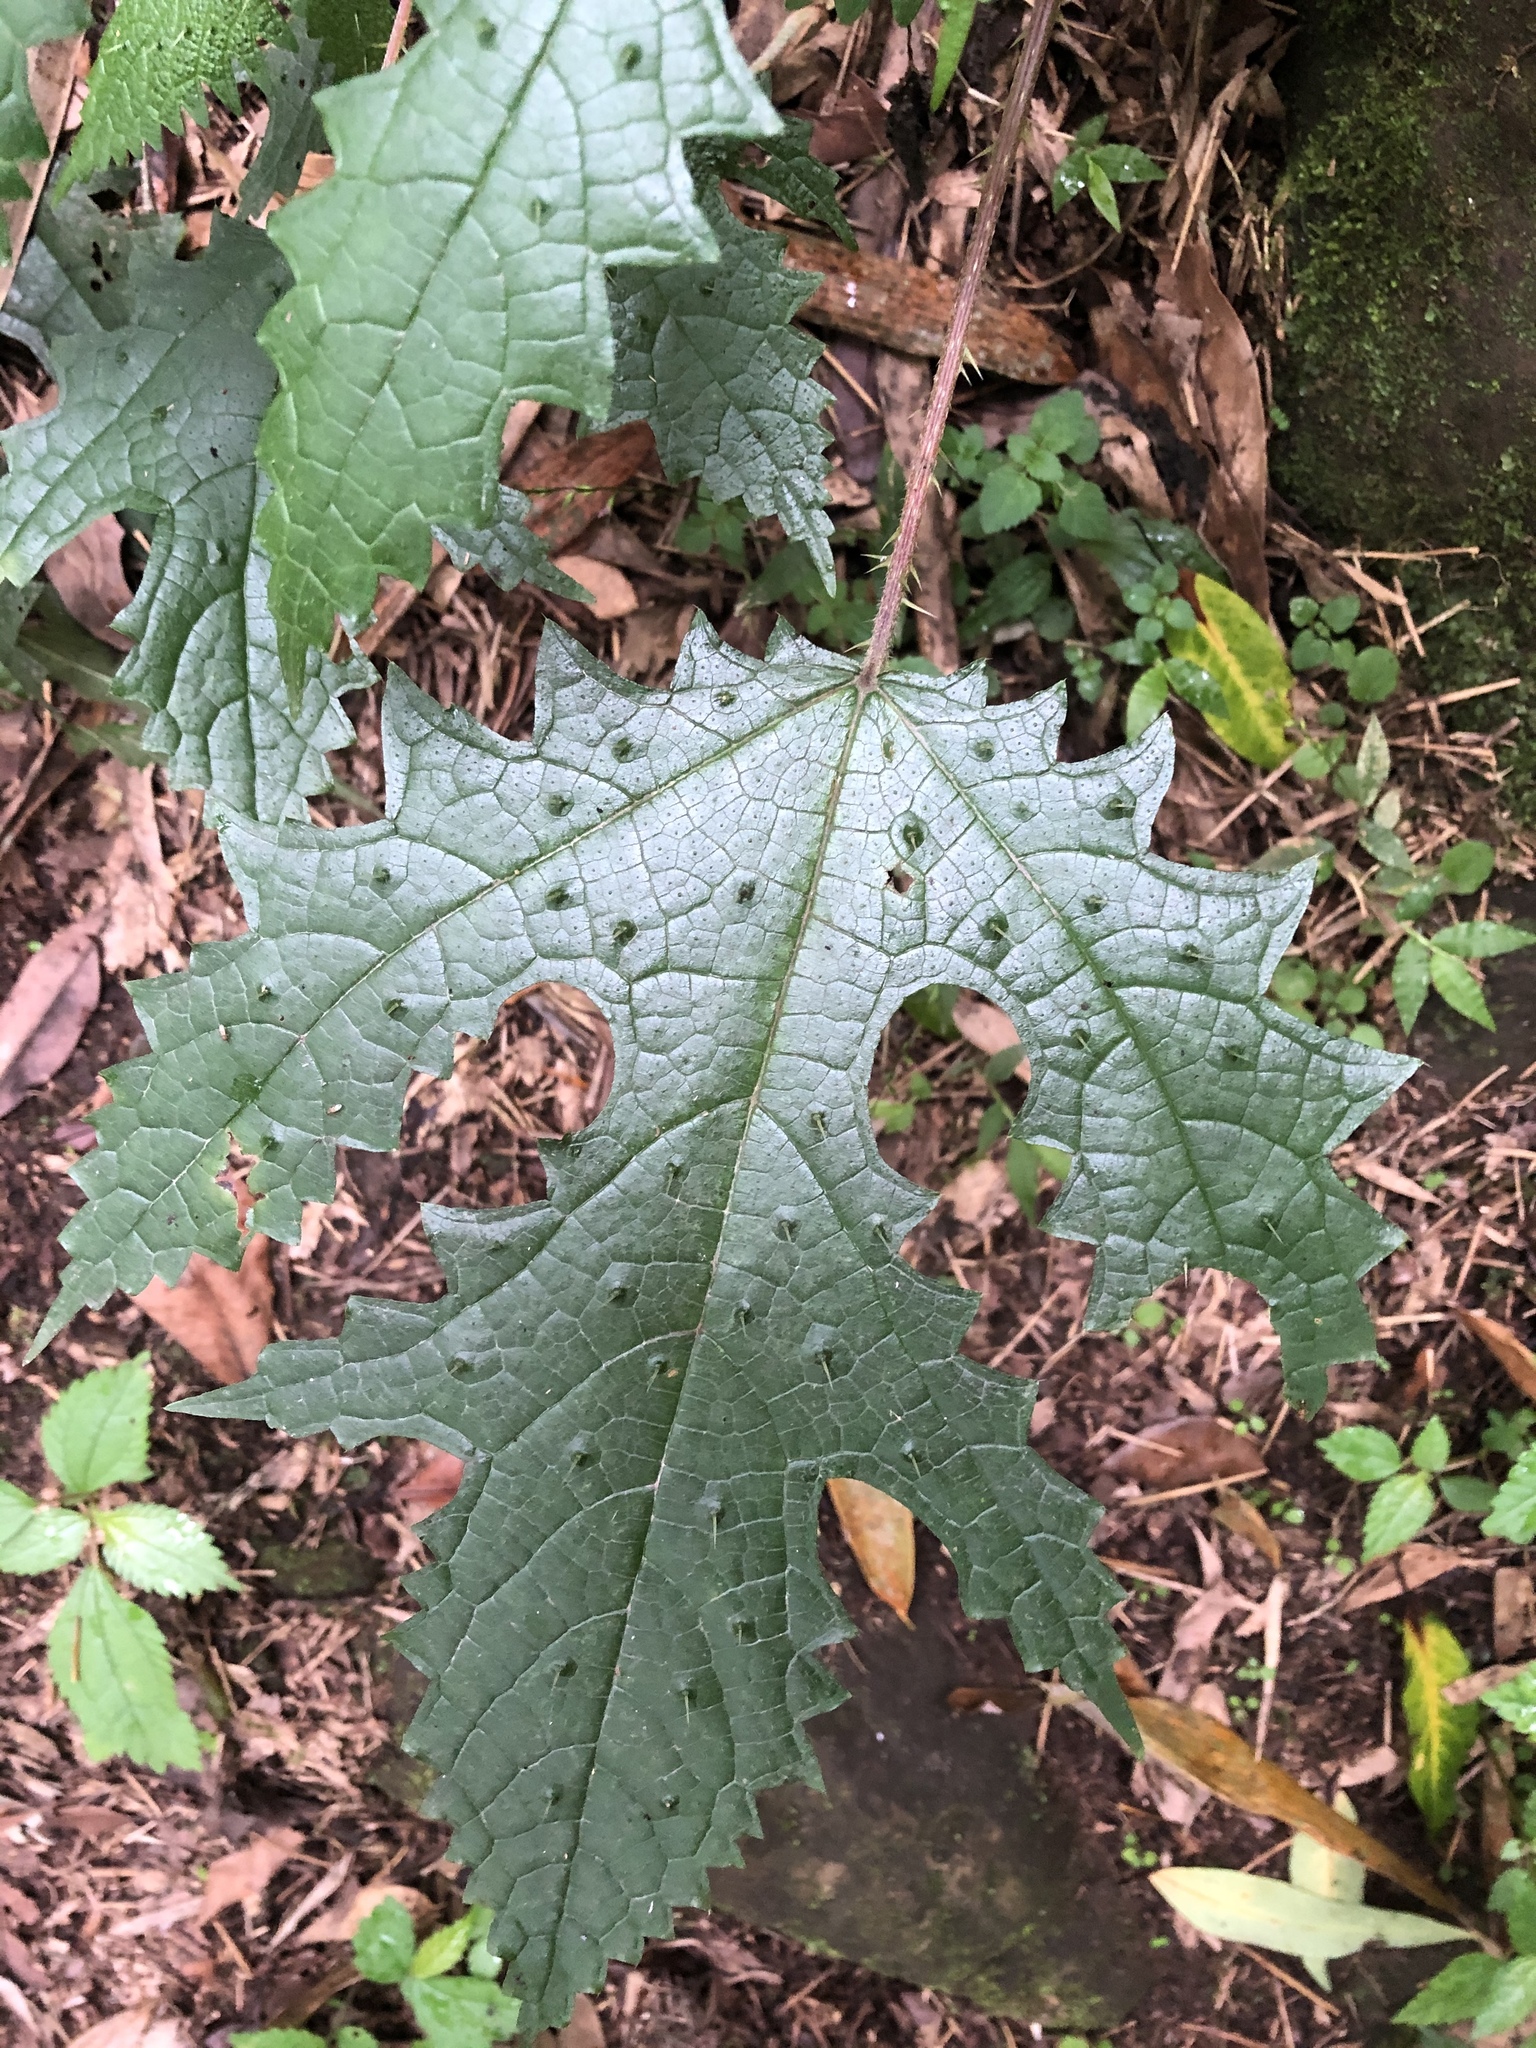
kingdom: Plantae
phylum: Tracheophyta
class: Magnoliopsida
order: Rosales
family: Urticaceae
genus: Girardinia
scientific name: Girardinia diversifolia
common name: Himalayan-nettle
